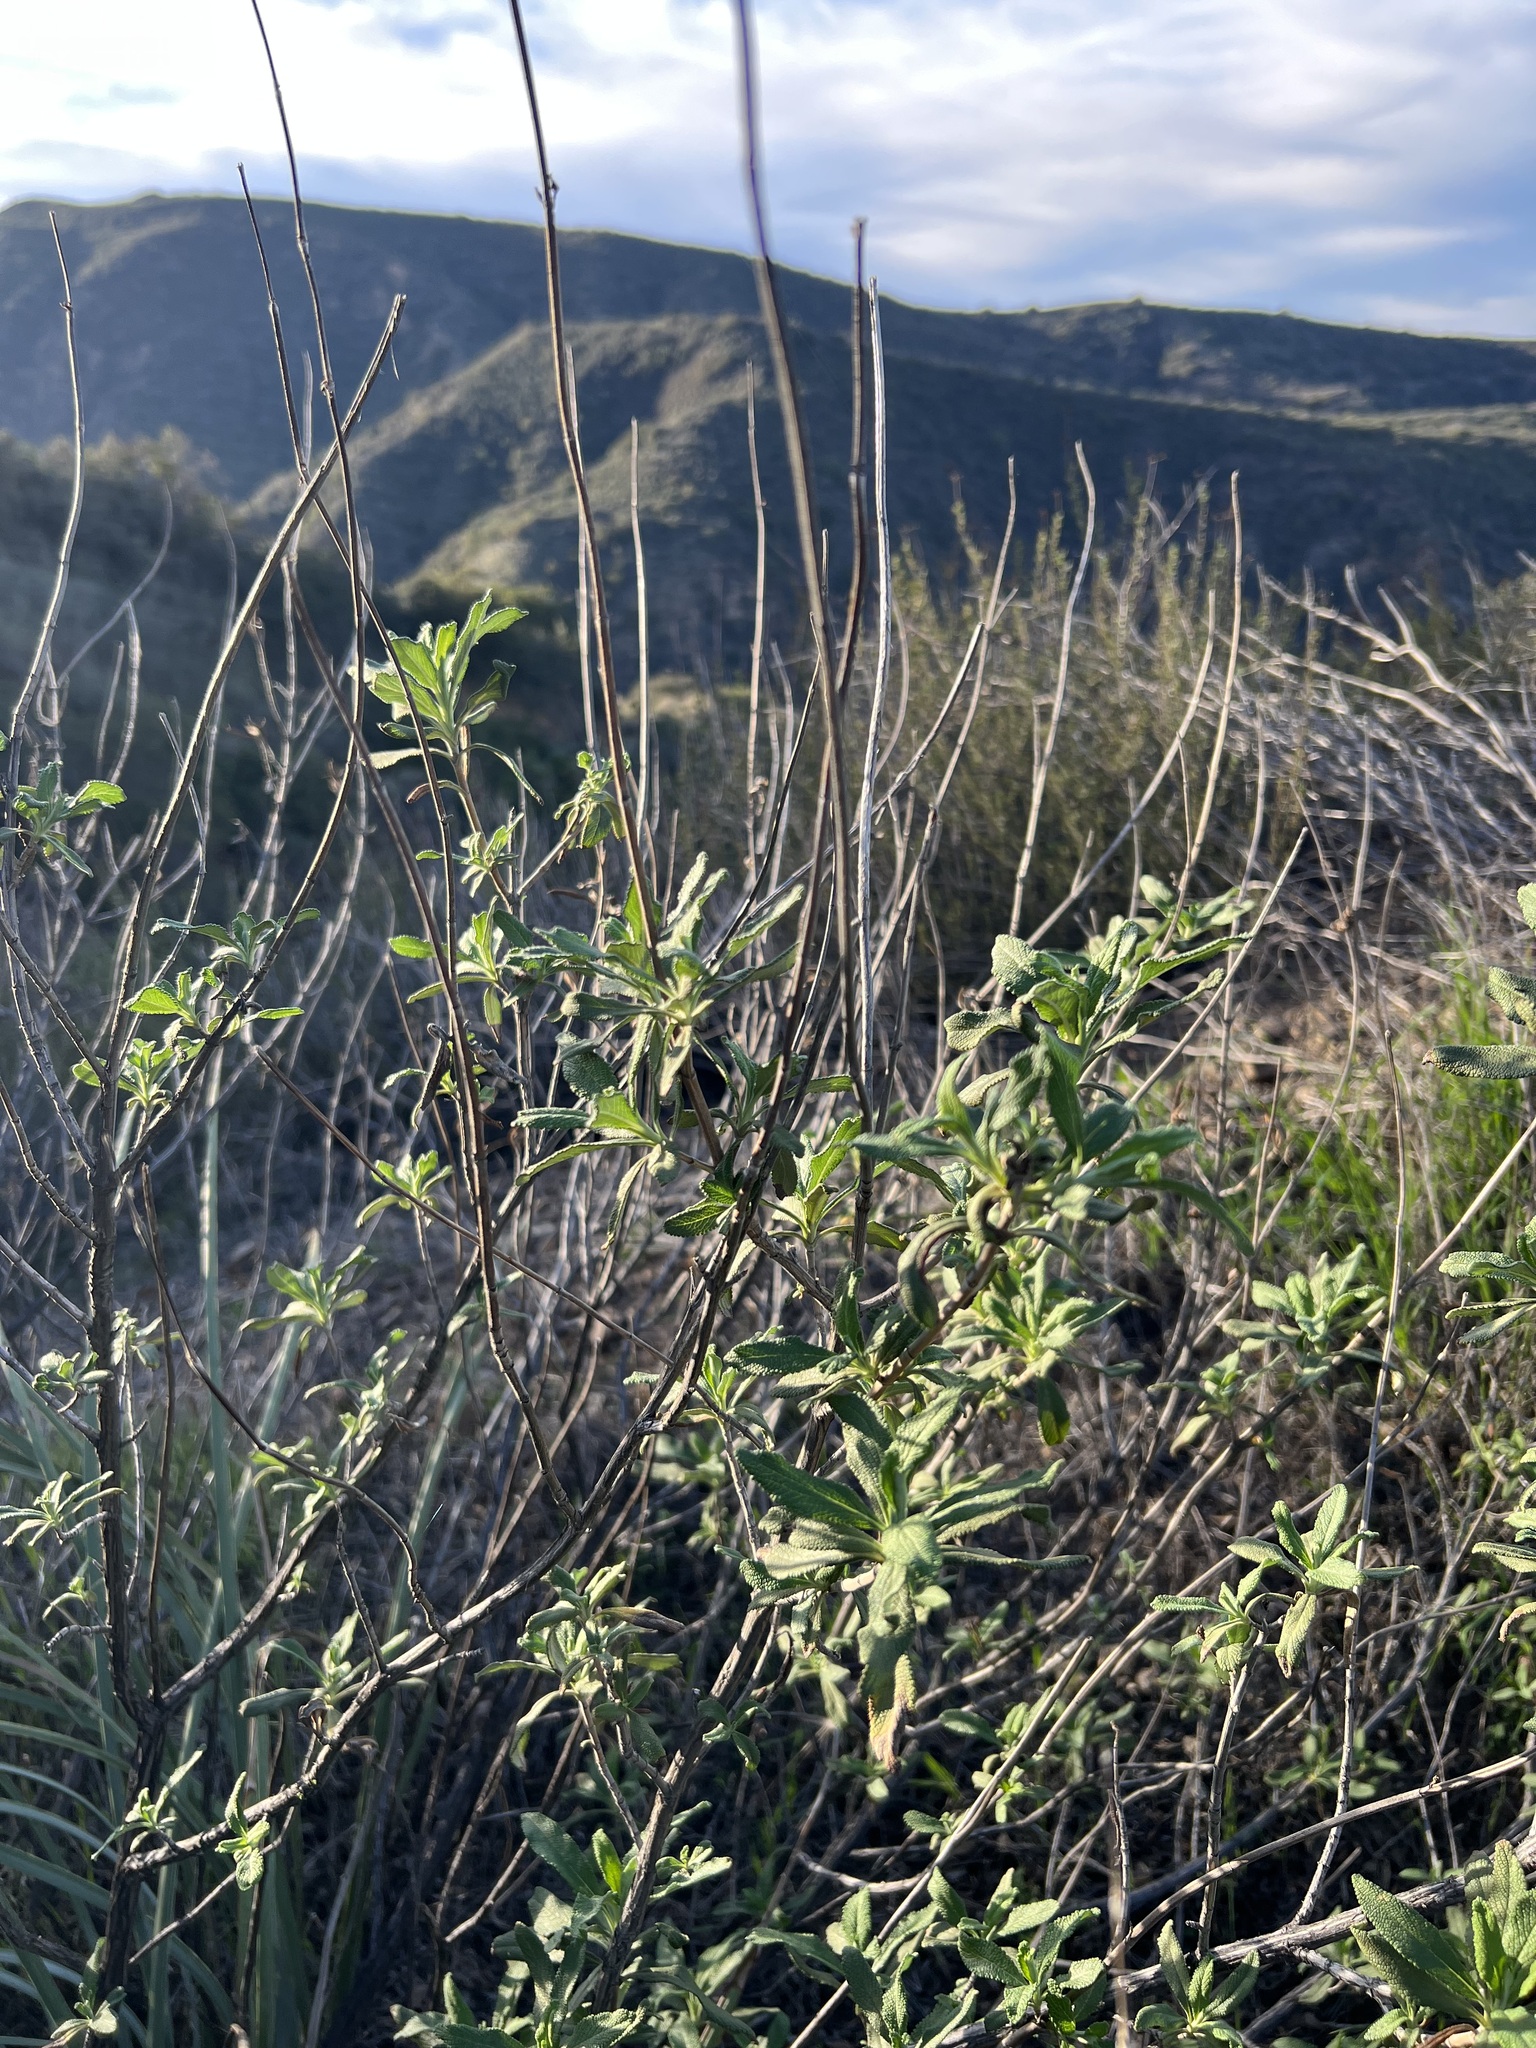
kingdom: Plantae
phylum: Tracheophyta
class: Magnoliopsida
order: Lamiales
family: Lamiaceae
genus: Salvia
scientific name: Salvia mellifera
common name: Black sage
